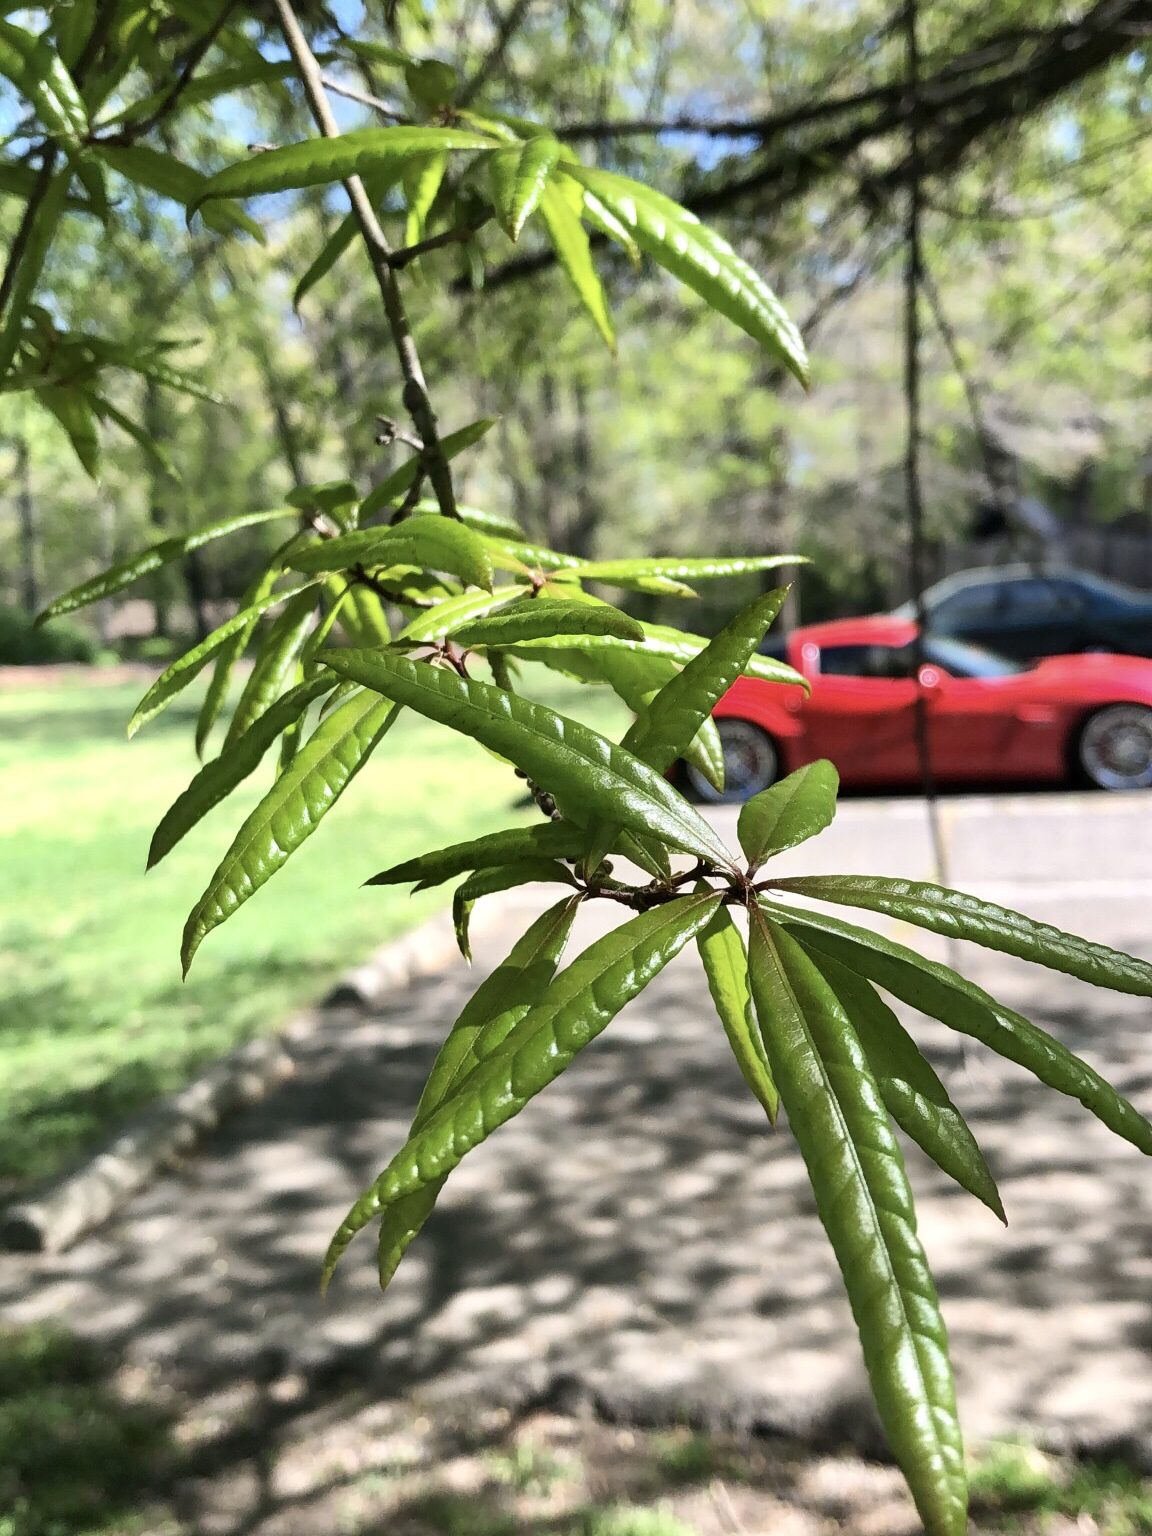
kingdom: Plantae
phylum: Tracheophyta
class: Magnoliopsida
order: Fagales
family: Fagaceae
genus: Quercus
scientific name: Quercus phellos
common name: Willow oak
